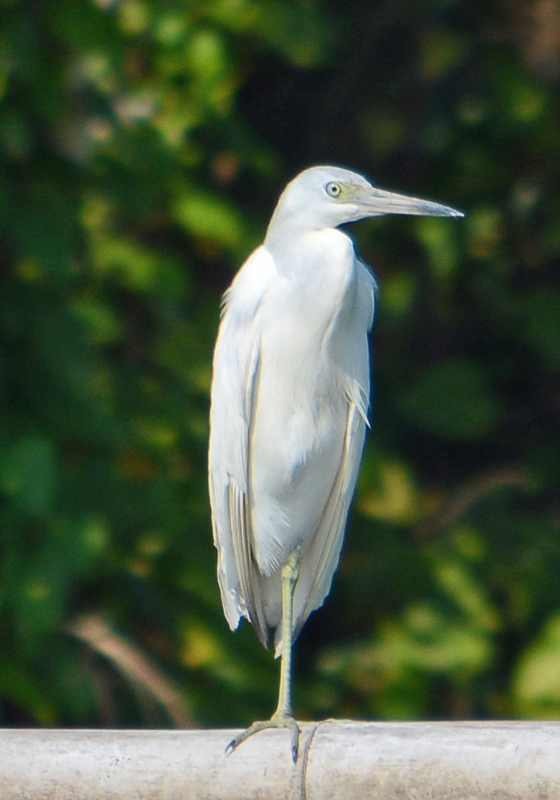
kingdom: Animalia
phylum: Chordata
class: Aves
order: Pelecaniformes
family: Ardeidae
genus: Egretta
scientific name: Egretta caerulea
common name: Little blue heron
